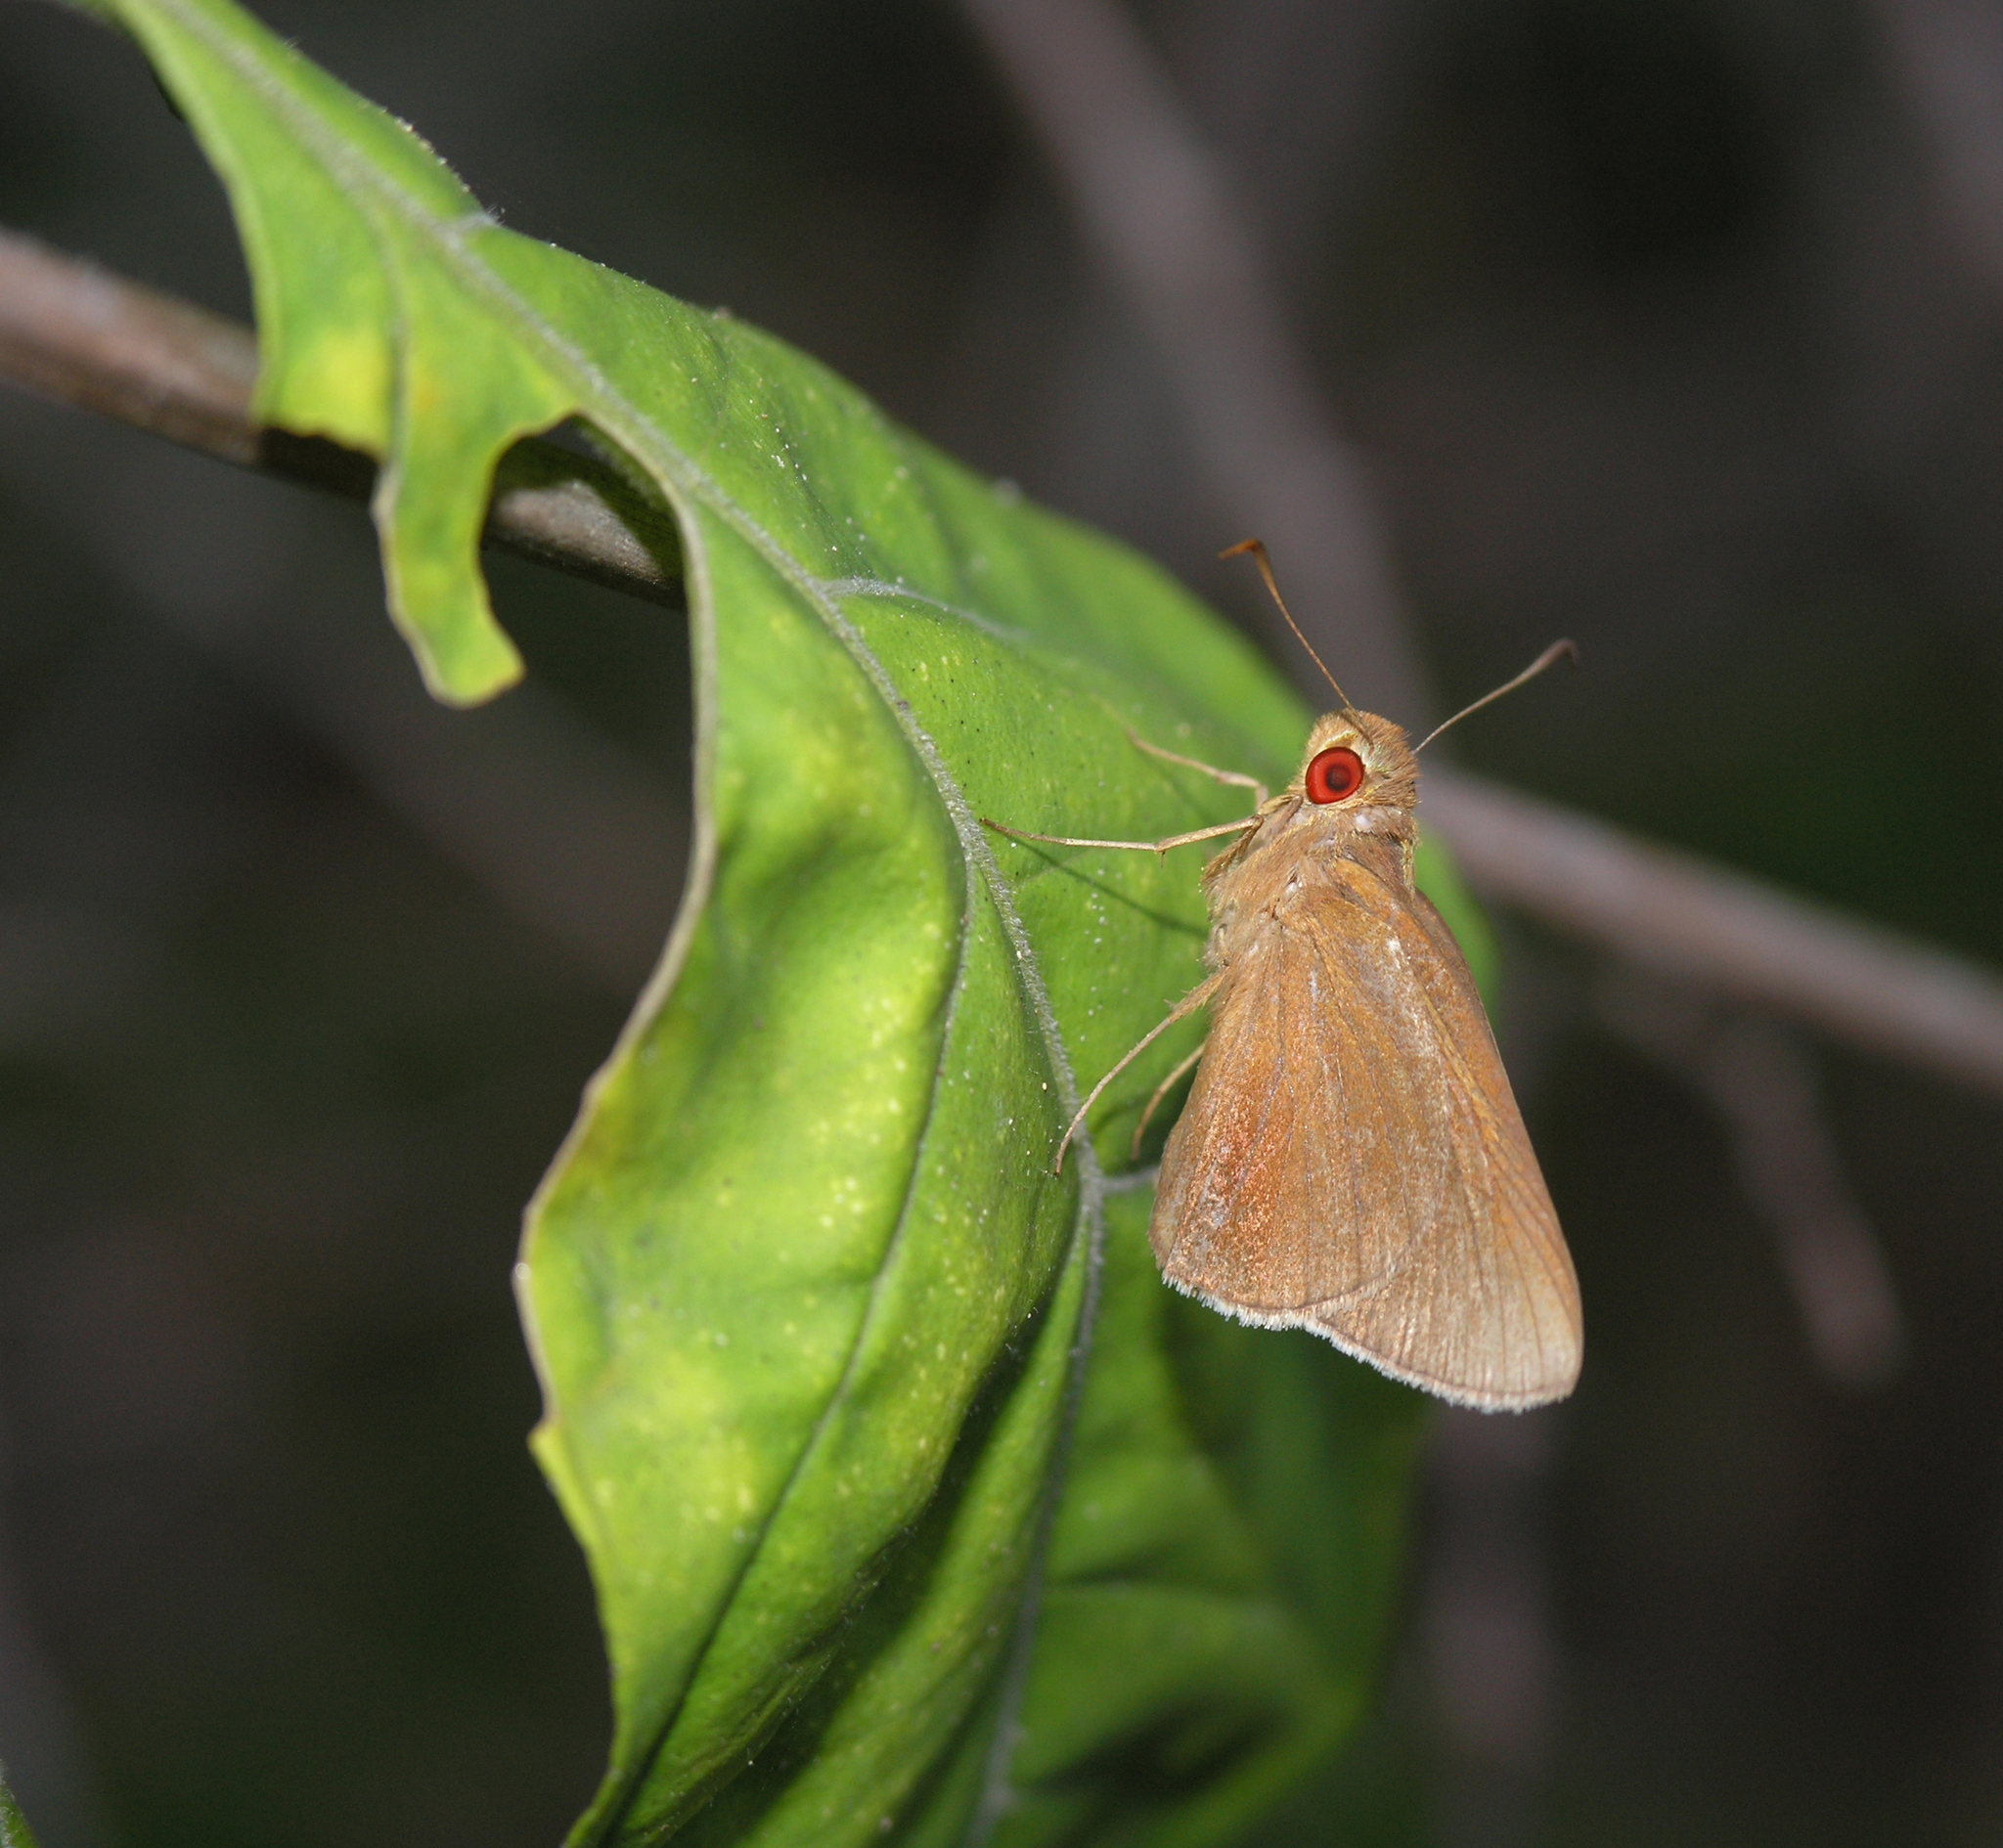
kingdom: Animalia
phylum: Arthropoda
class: Insecta
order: Lepidoptera
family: Hesperiidae
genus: Matapa
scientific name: Matapa aria
